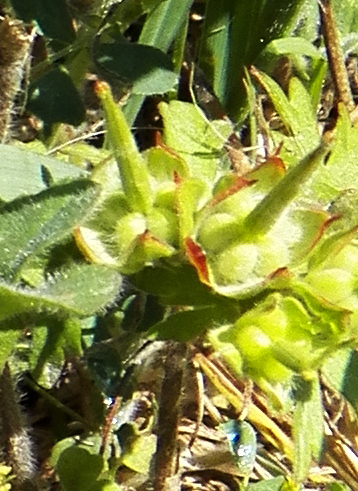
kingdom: Plantae
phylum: Tracheophyta
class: Magnoliopsida
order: Geraniales
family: Geraniaceae
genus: Geranium
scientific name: Geranium carolinianum
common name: Carolina crane's-bill
